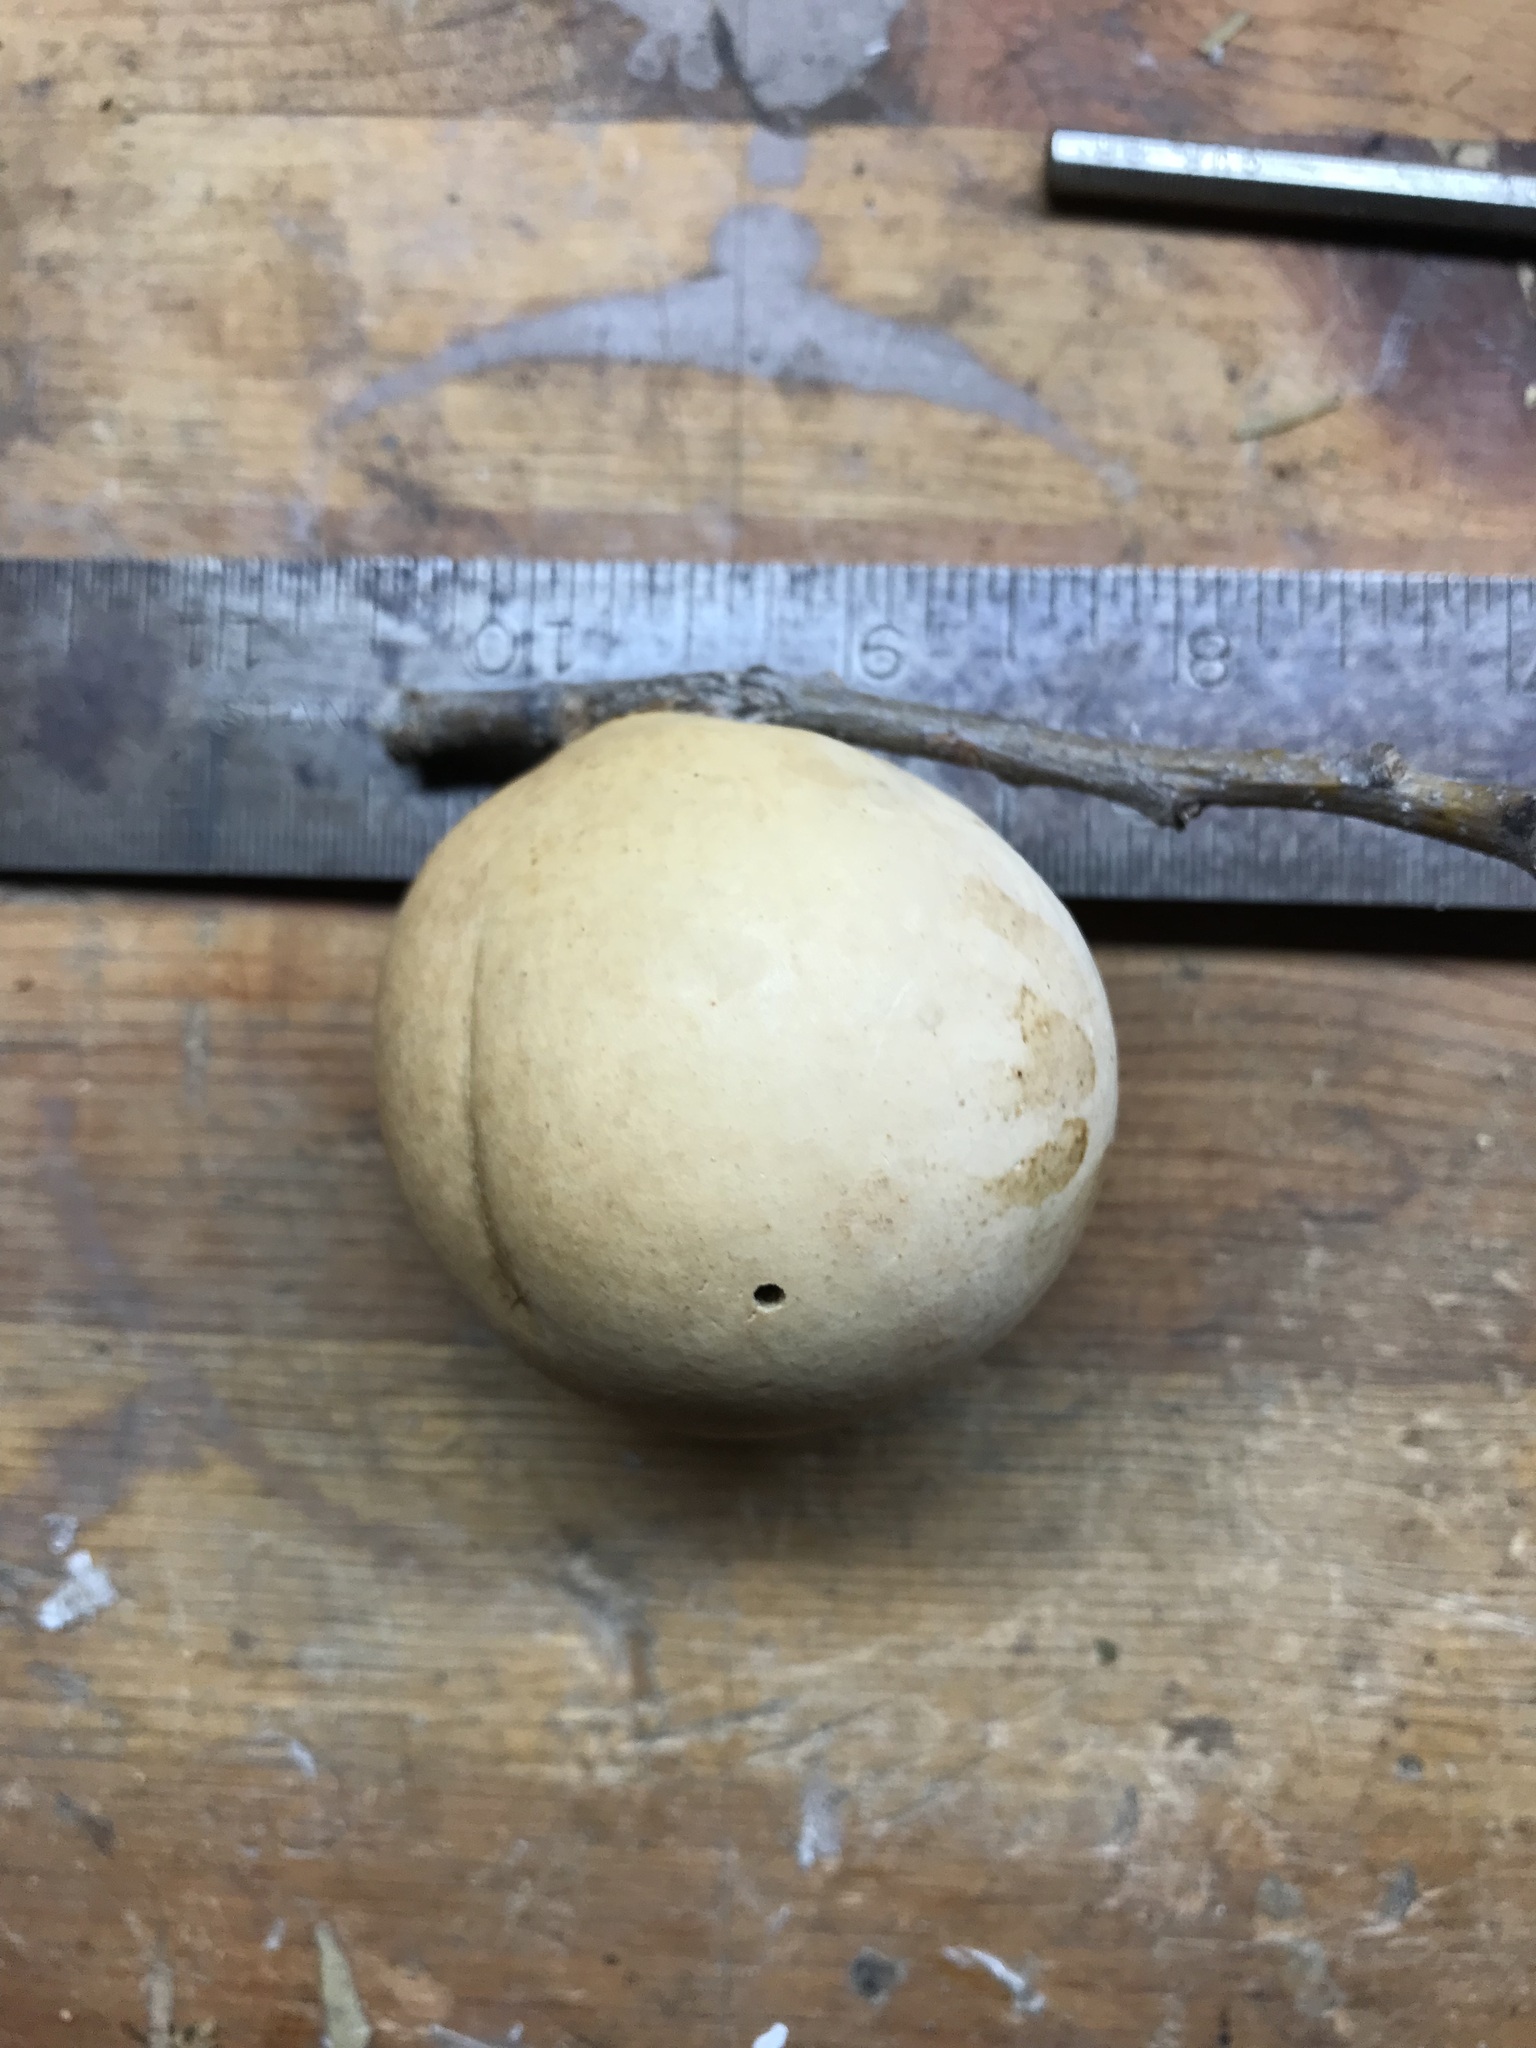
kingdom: Animalia
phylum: Arthropoda
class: Insecta
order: Hymenoptera
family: Cynipidae
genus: Andricus
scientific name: Andricus quercuscalifornicus
